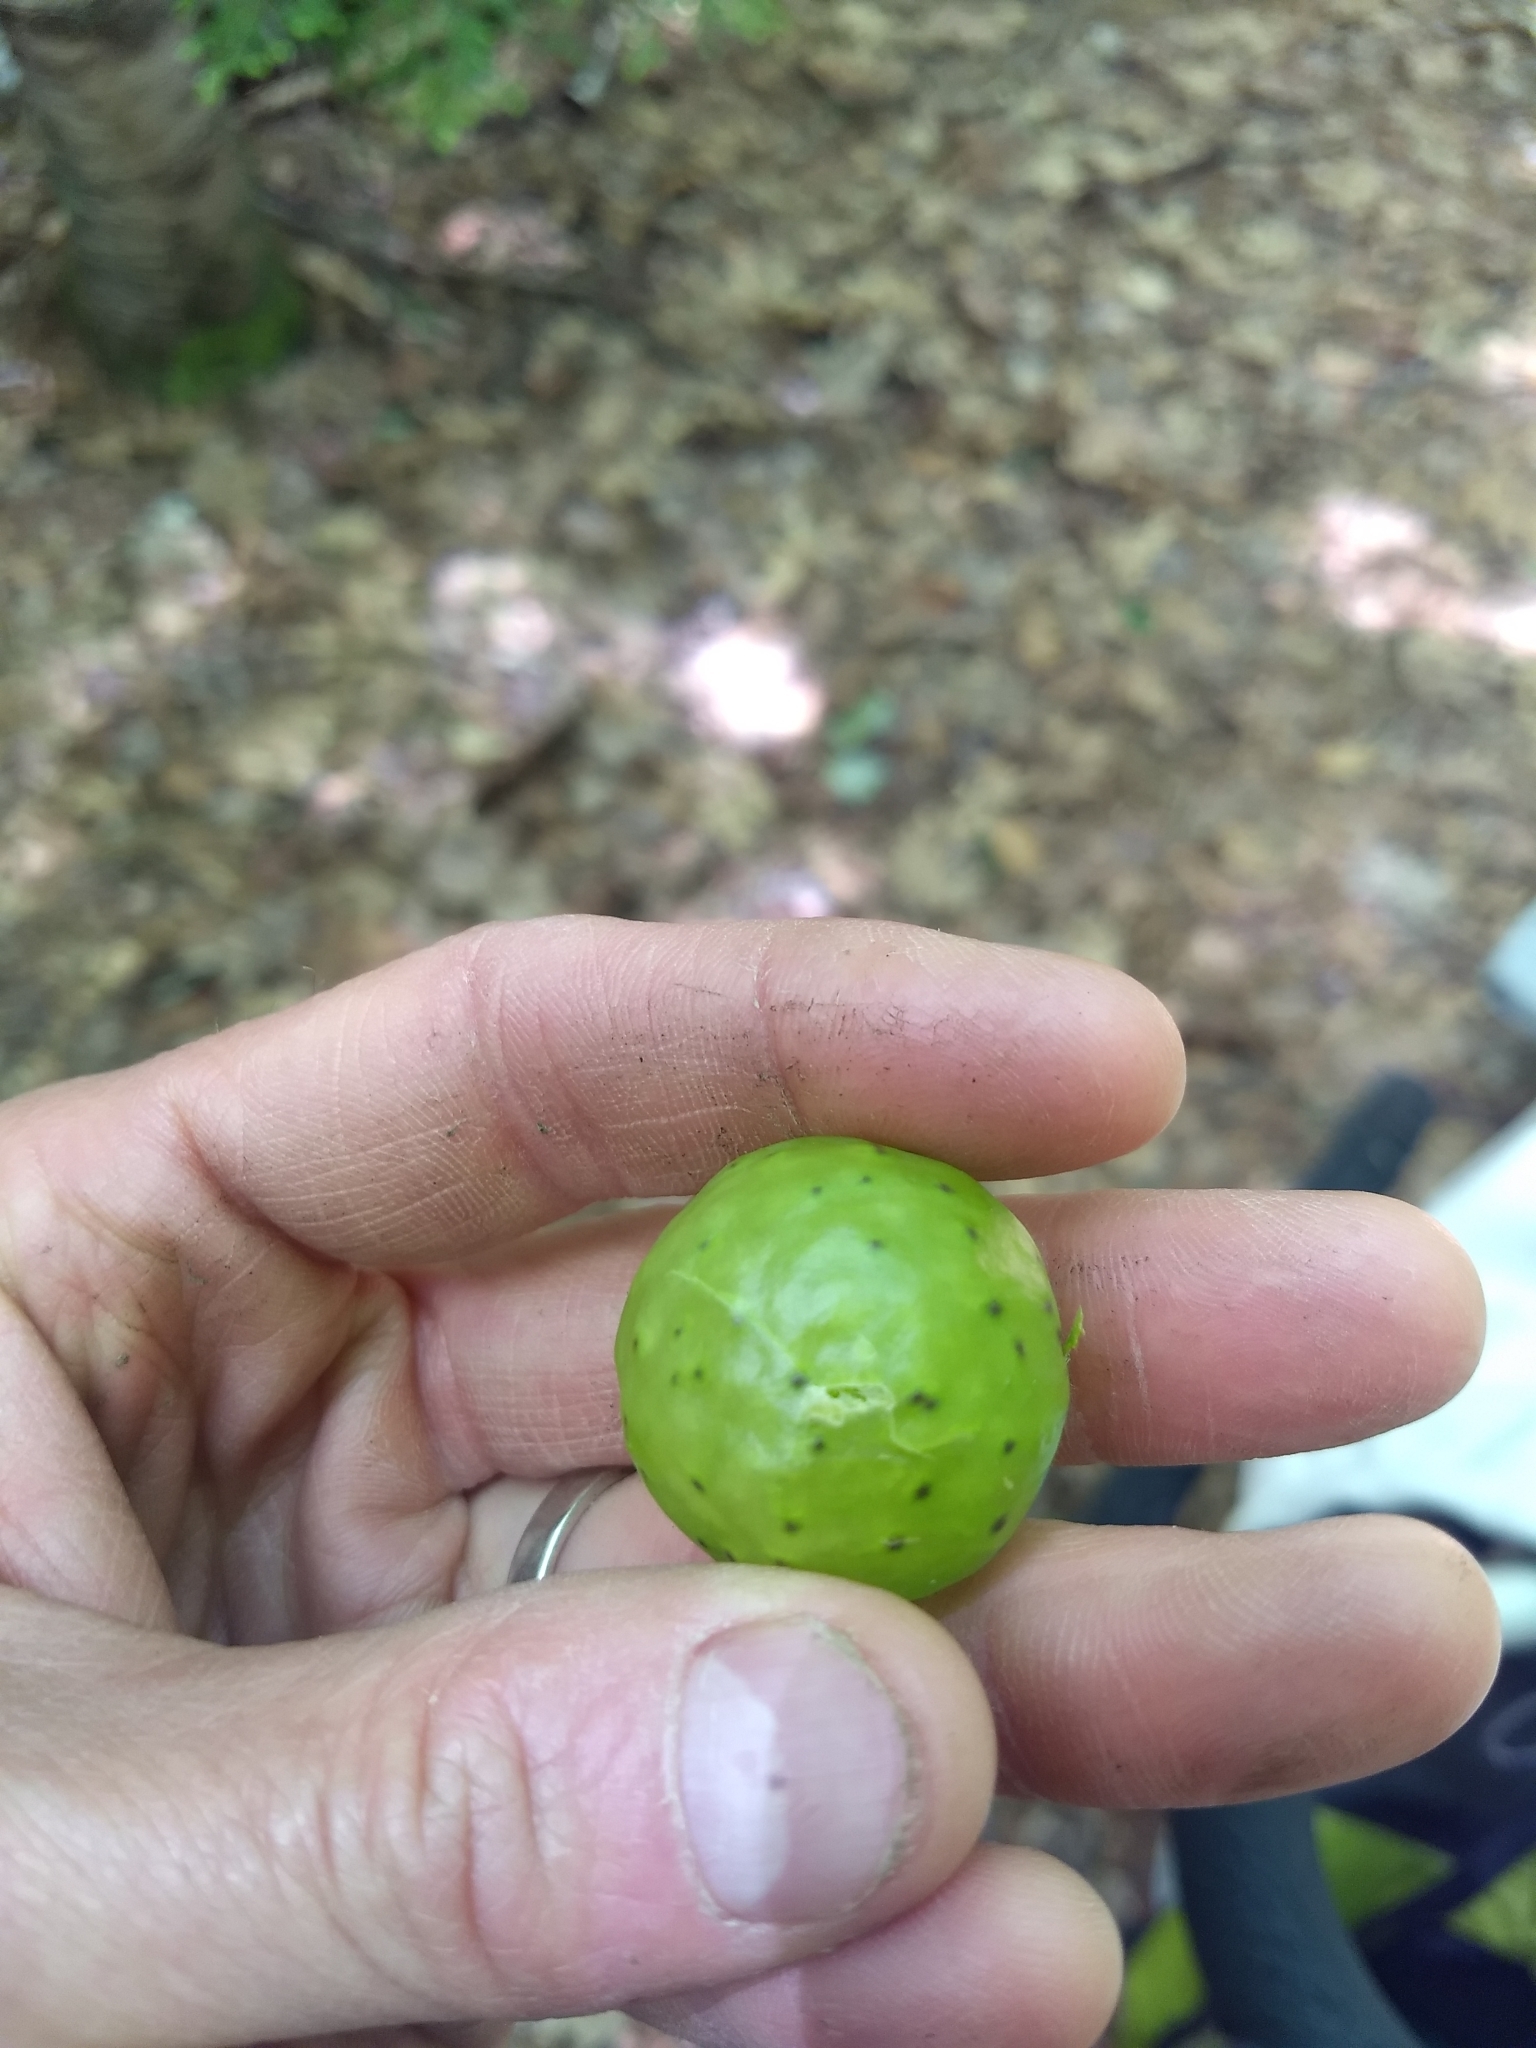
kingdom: Animalia
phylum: Arthropoda
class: Insecta
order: Hymenoptera
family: Cynipidae
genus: Amphibolips
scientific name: Amphibolips
